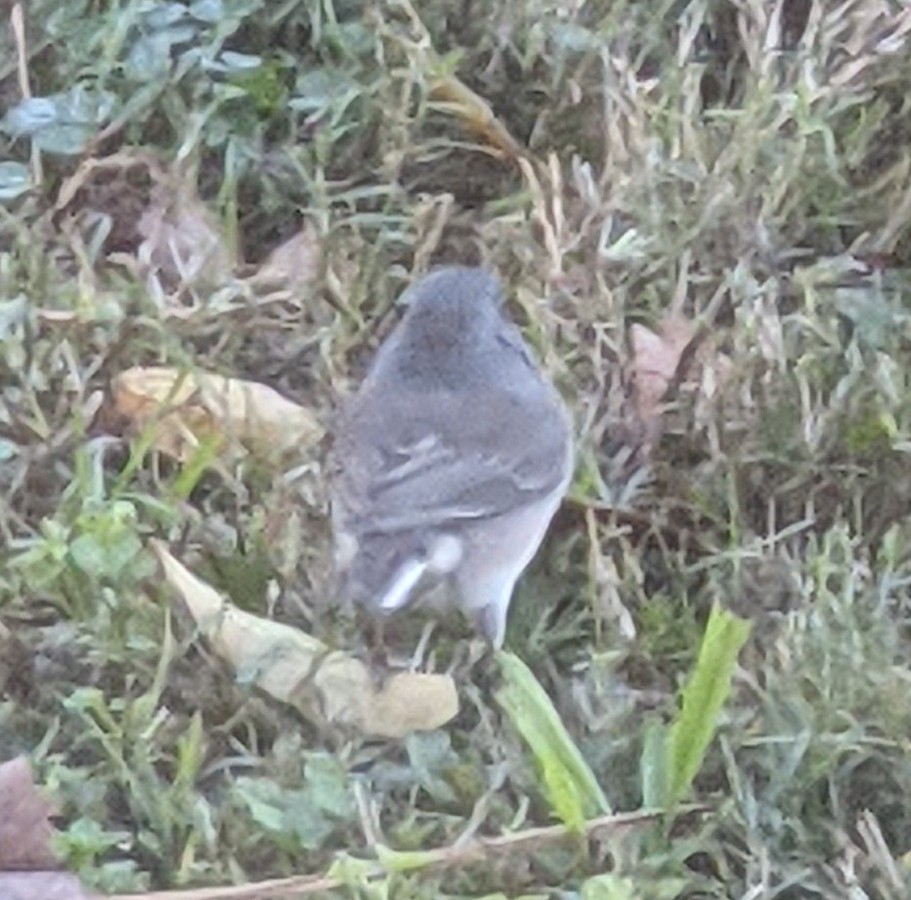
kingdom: Animalia
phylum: Chordata
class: Aves
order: Passeriformes
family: Passerellidae
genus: Junco
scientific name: Junco hyemalis
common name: Dark-eyed junco
